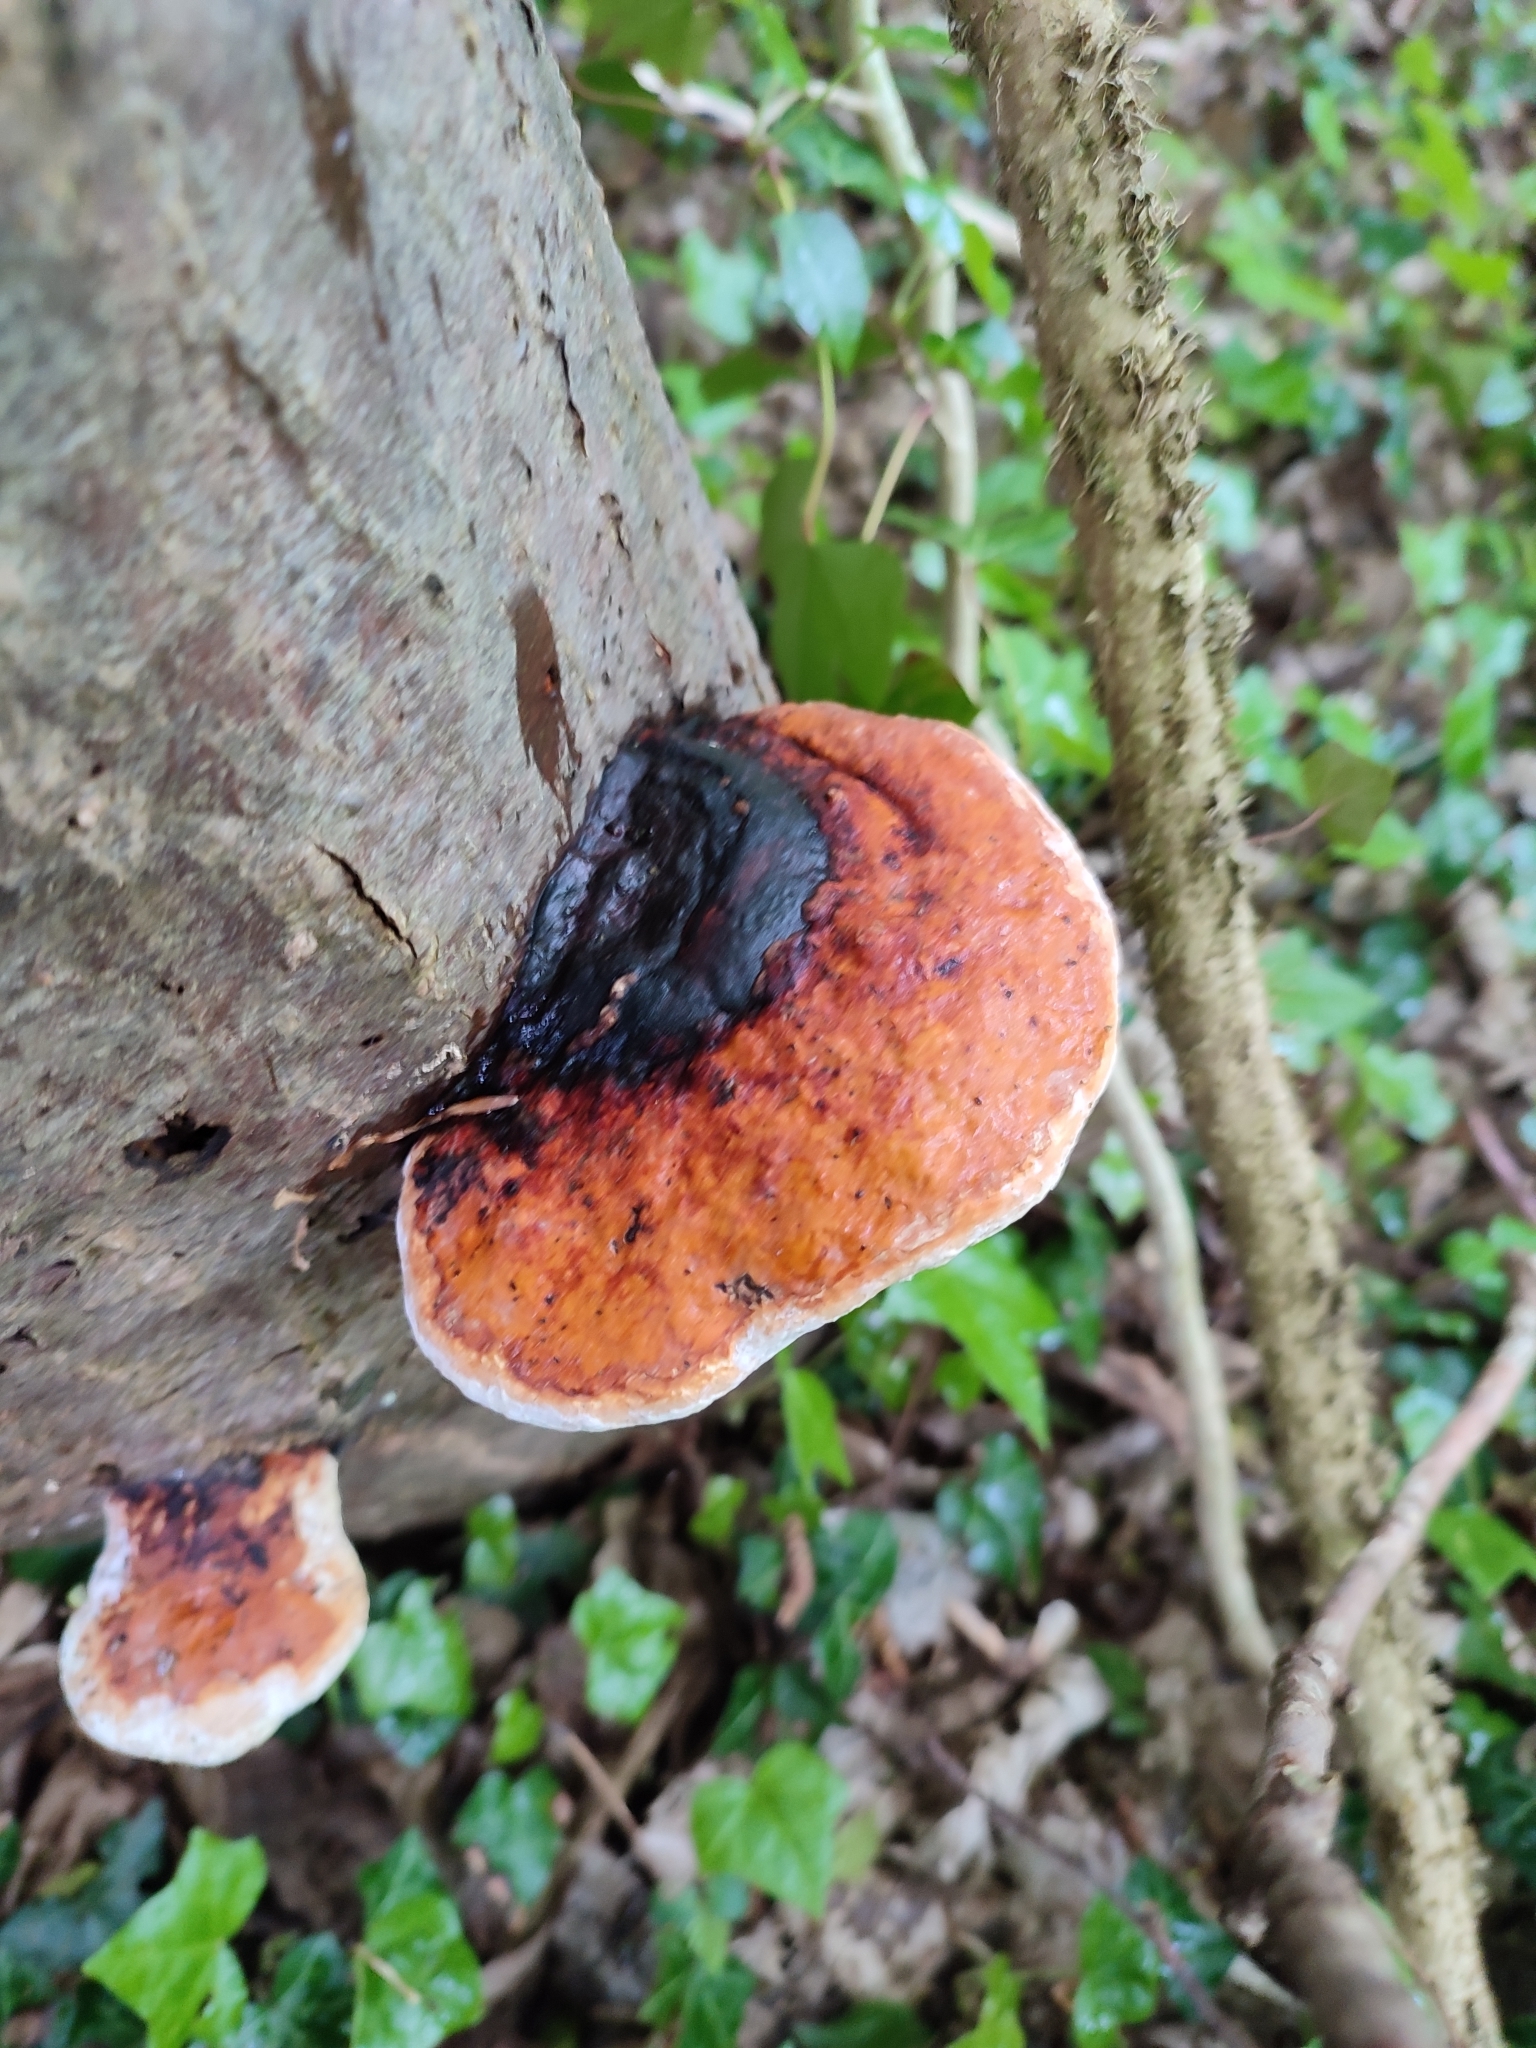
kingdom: Fungi
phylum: Basidiomycota
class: Agaricomycetes
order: Polyporales
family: Fomitopsidaceae
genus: Fomitopsis
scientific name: Fomitopsis pinicola
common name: Red-belted bracket
